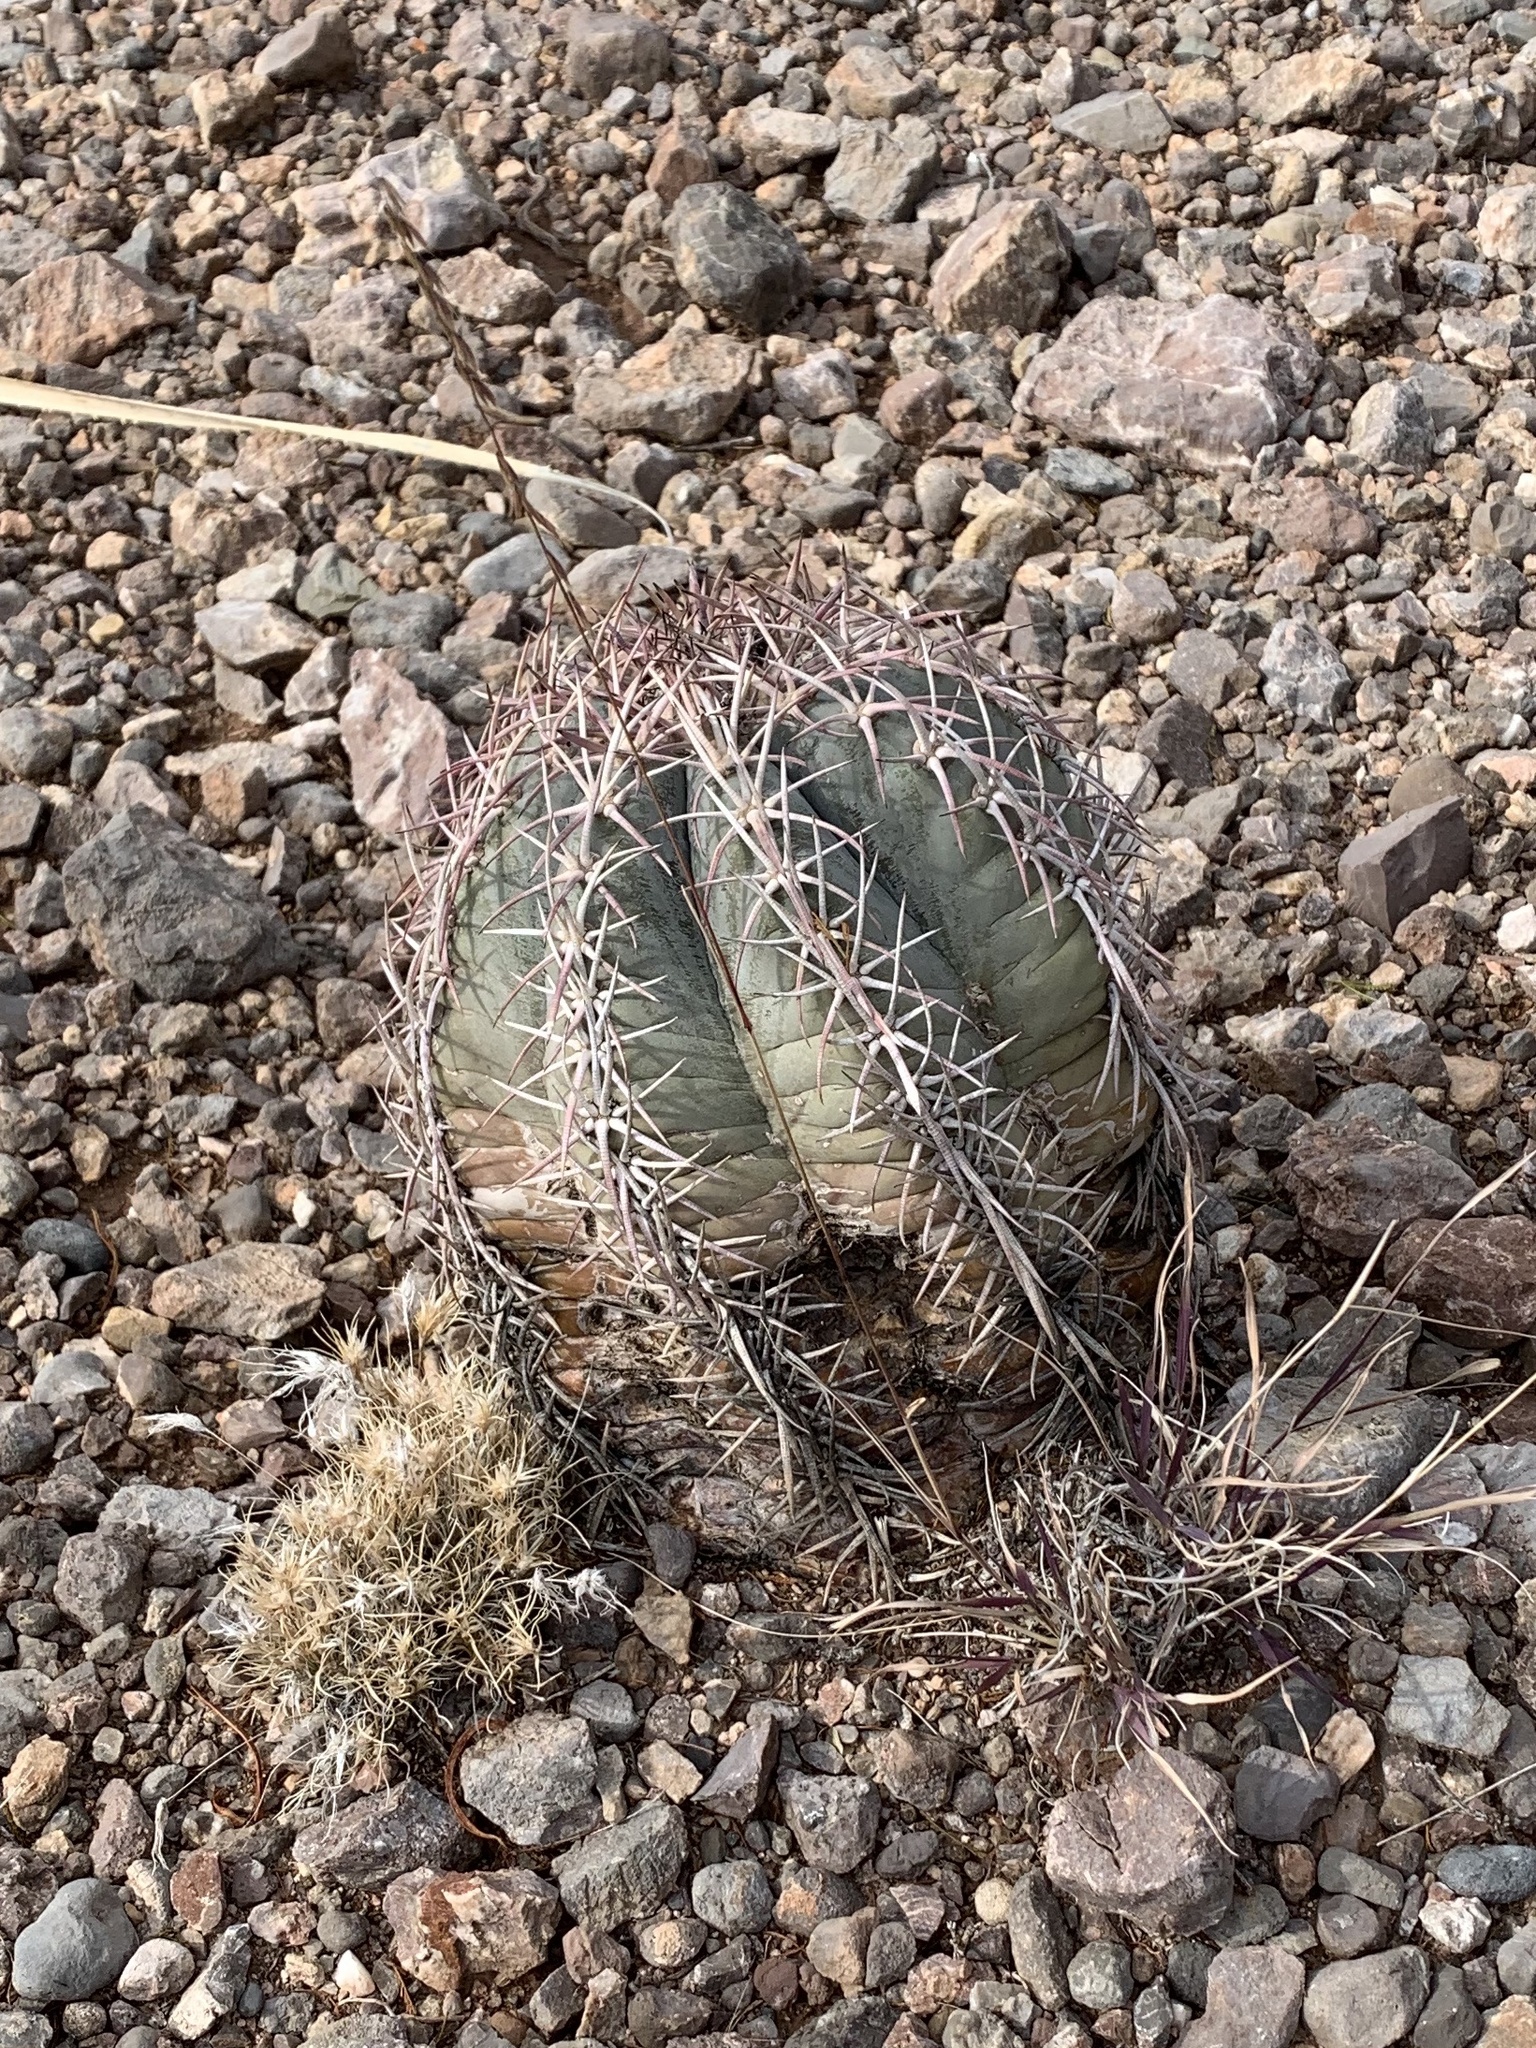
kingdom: Plantae
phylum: Tracheophyta
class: Magnoliopsida
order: Caryophyllales
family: Cactaceae
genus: Echinocactus
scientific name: Echinocactus horizonthalonius
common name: Devilshead
